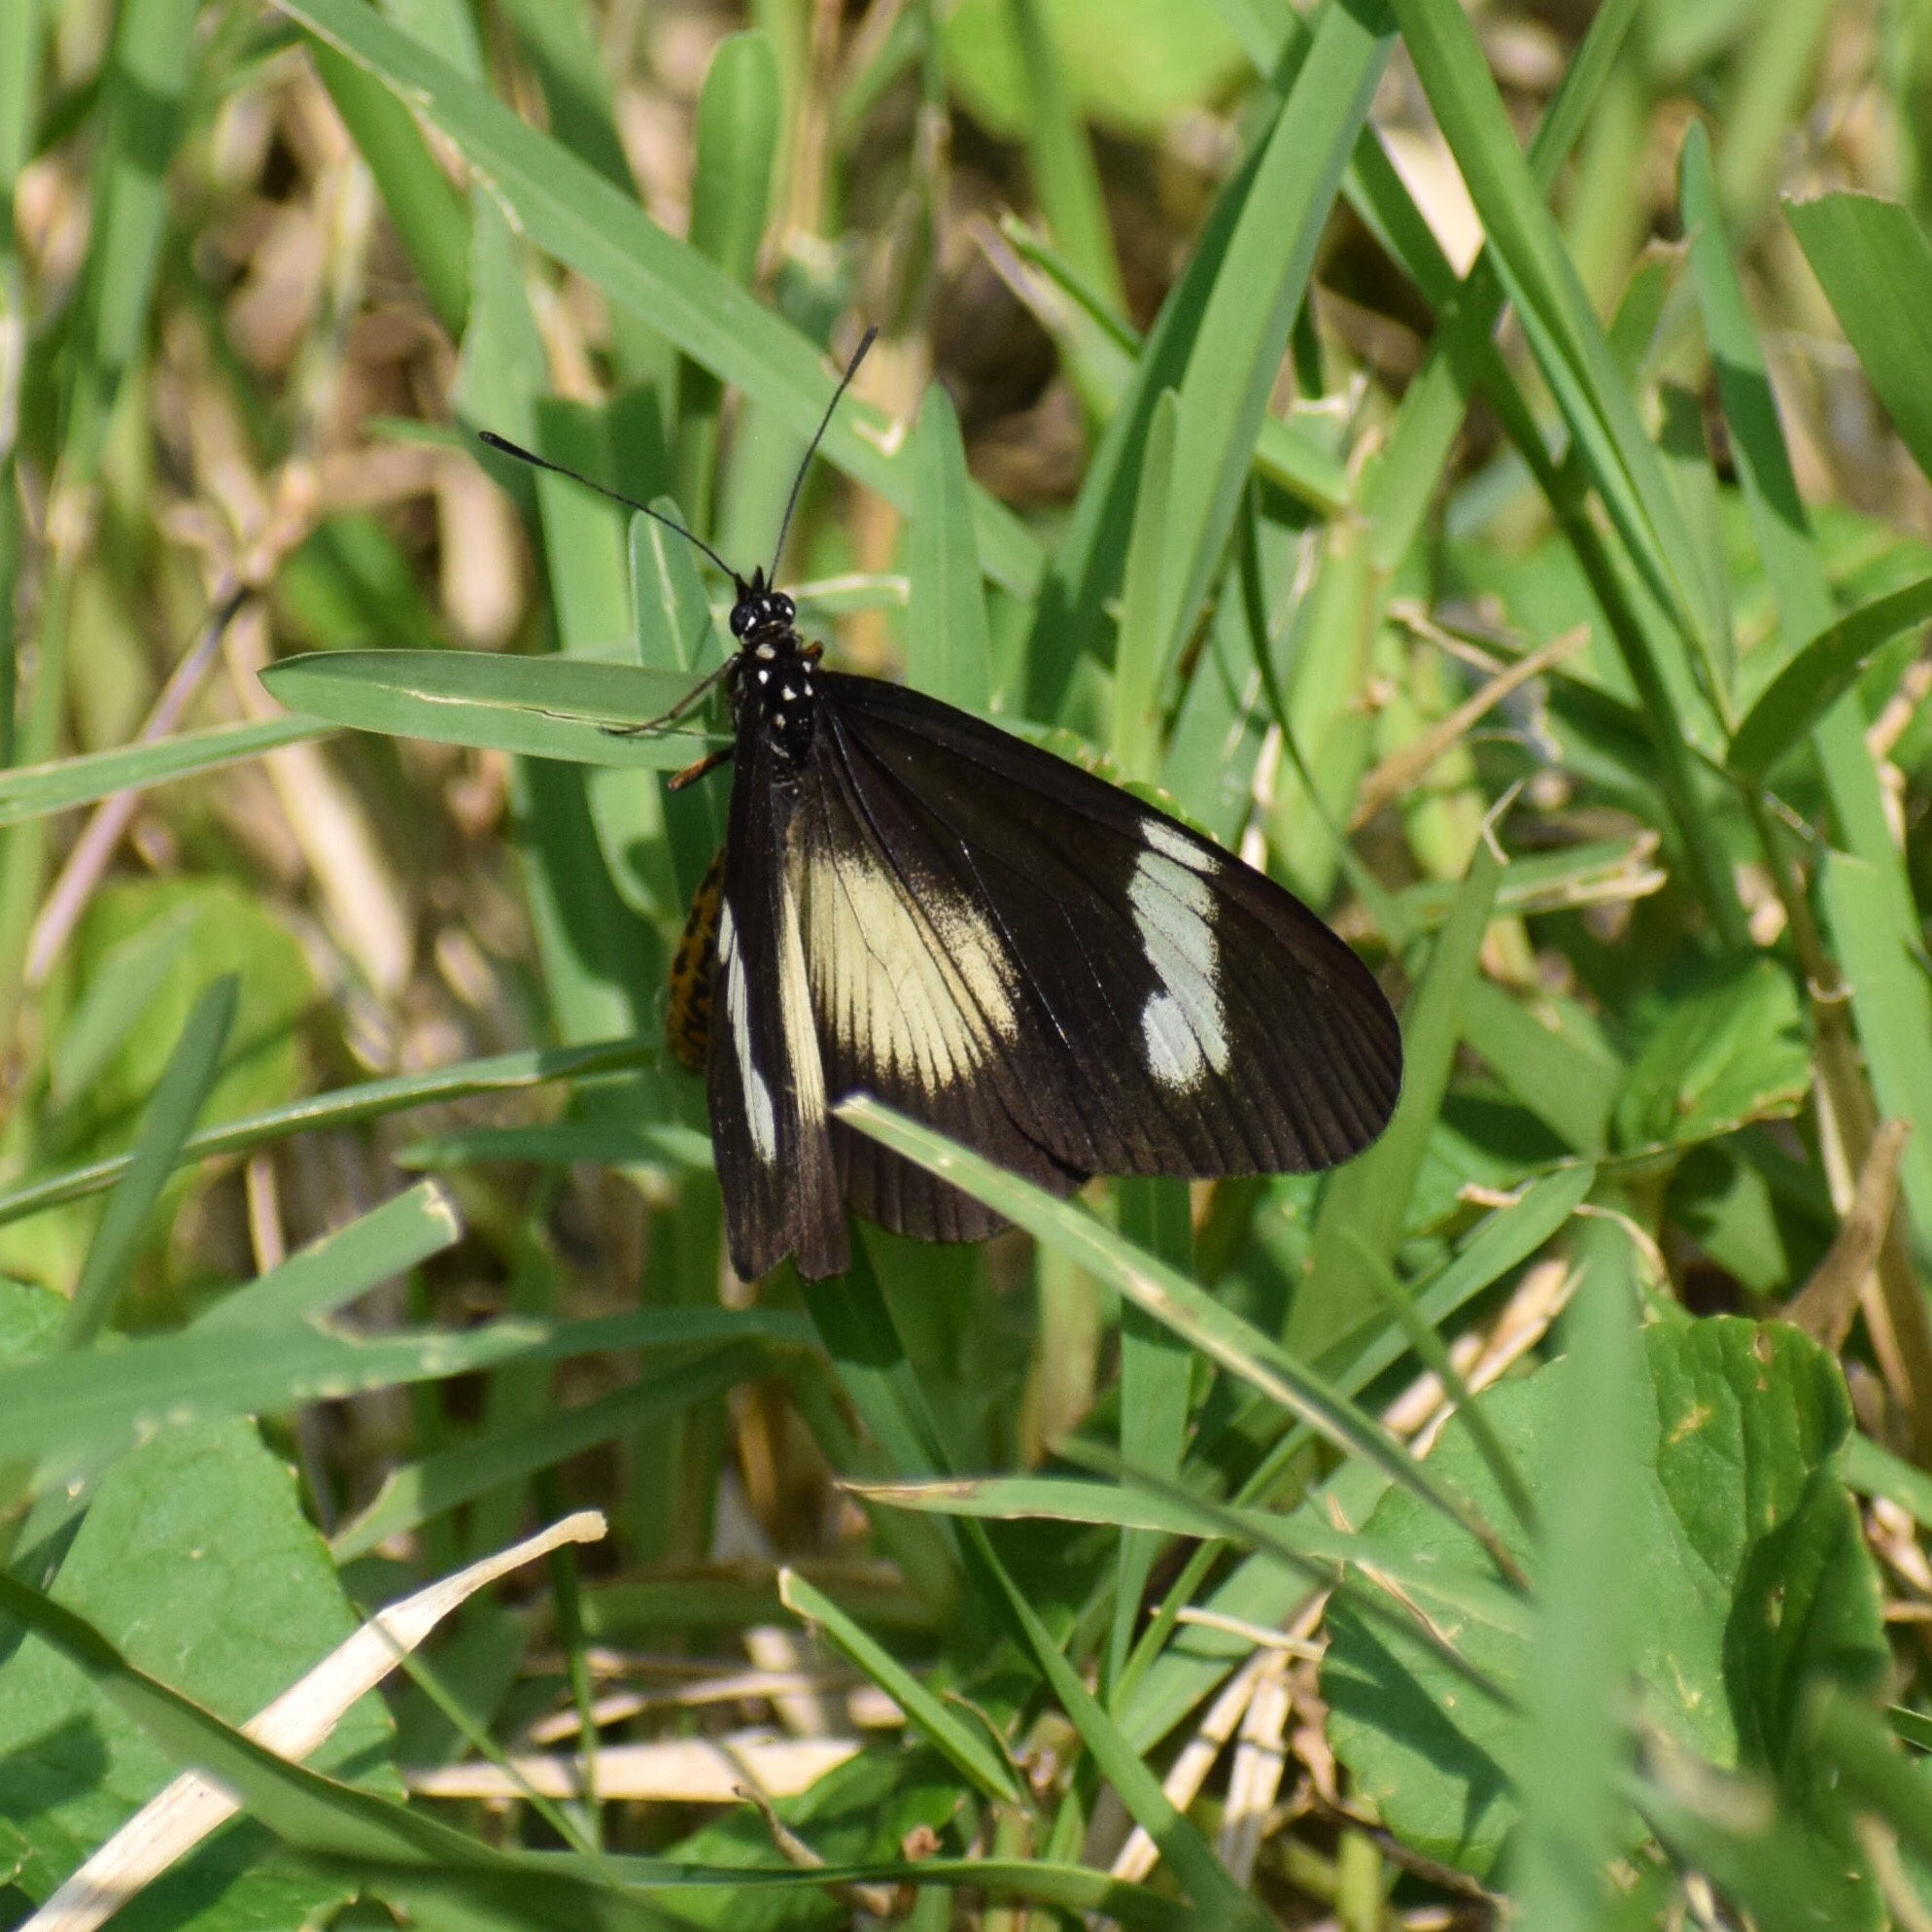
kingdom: Animalia
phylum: Arthropoda
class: Insecta
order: Lepidoptera
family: Nymphalidae
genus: Acraea
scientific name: Acraea esebria
